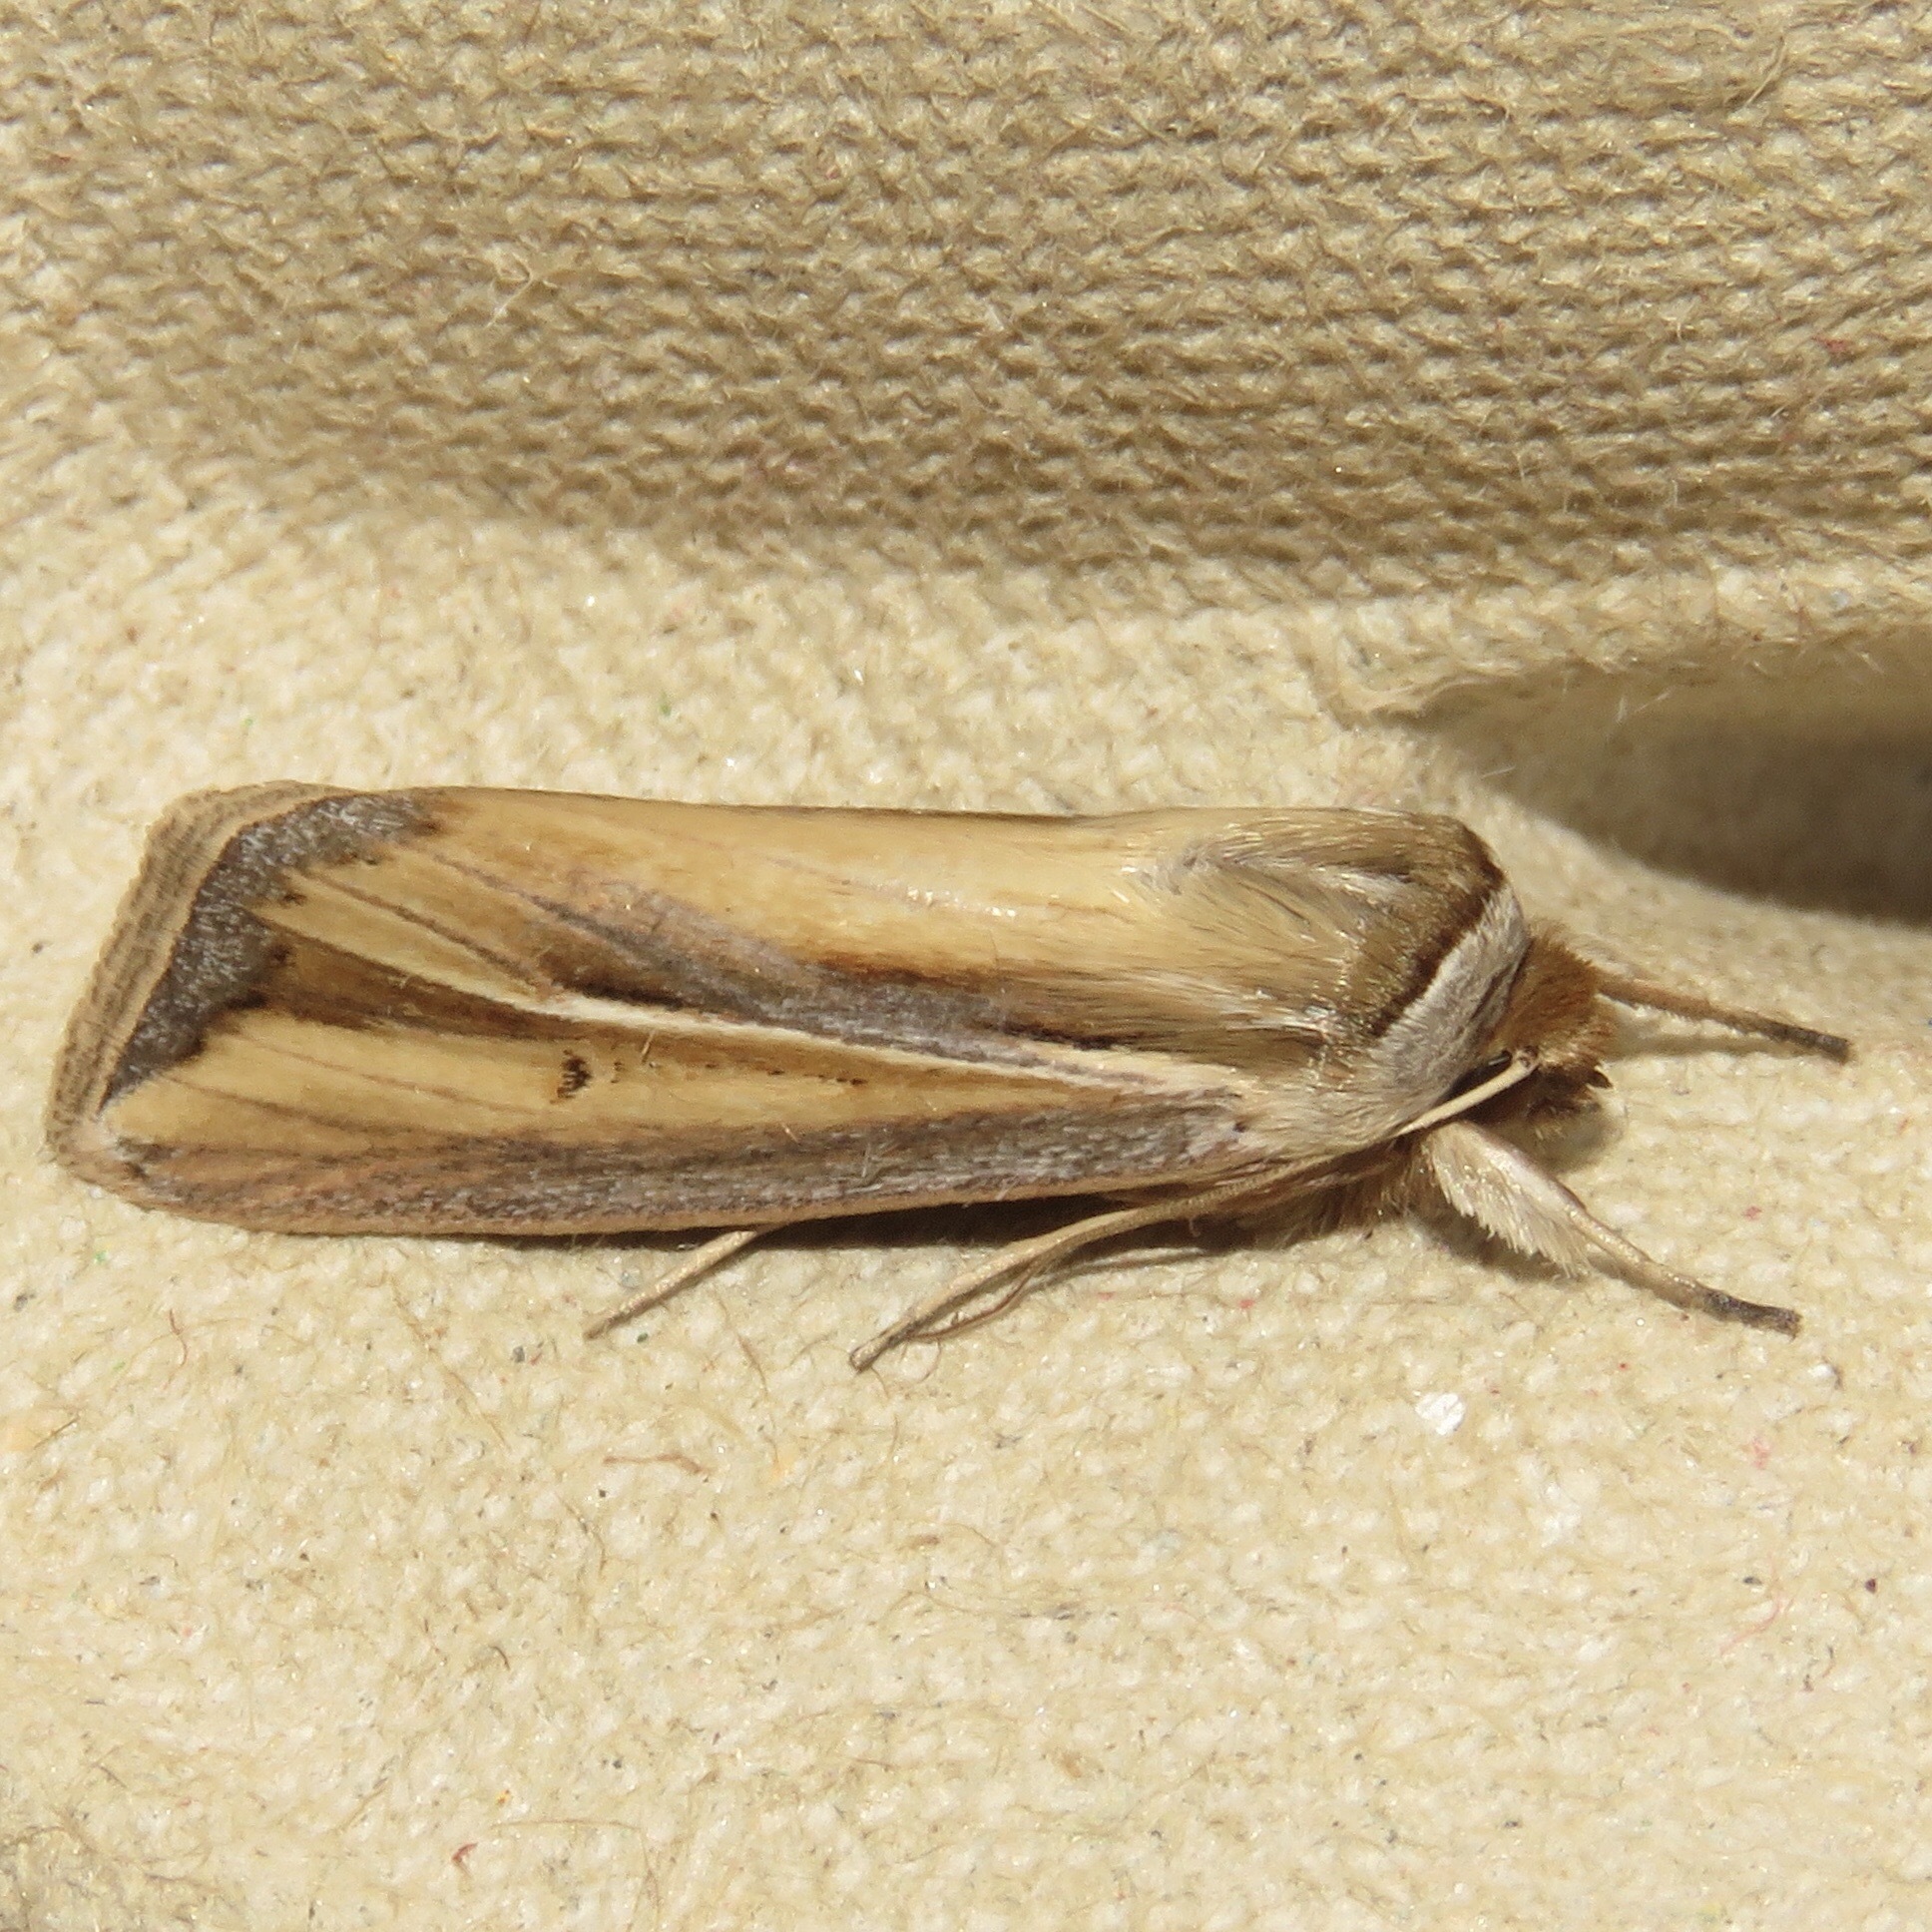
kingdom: Animalia
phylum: Arthropoda
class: Insecta
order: Lepidoptera
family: Noctuidae
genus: Dargida
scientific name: Dargida diffusa
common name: Wheat head armyworm
